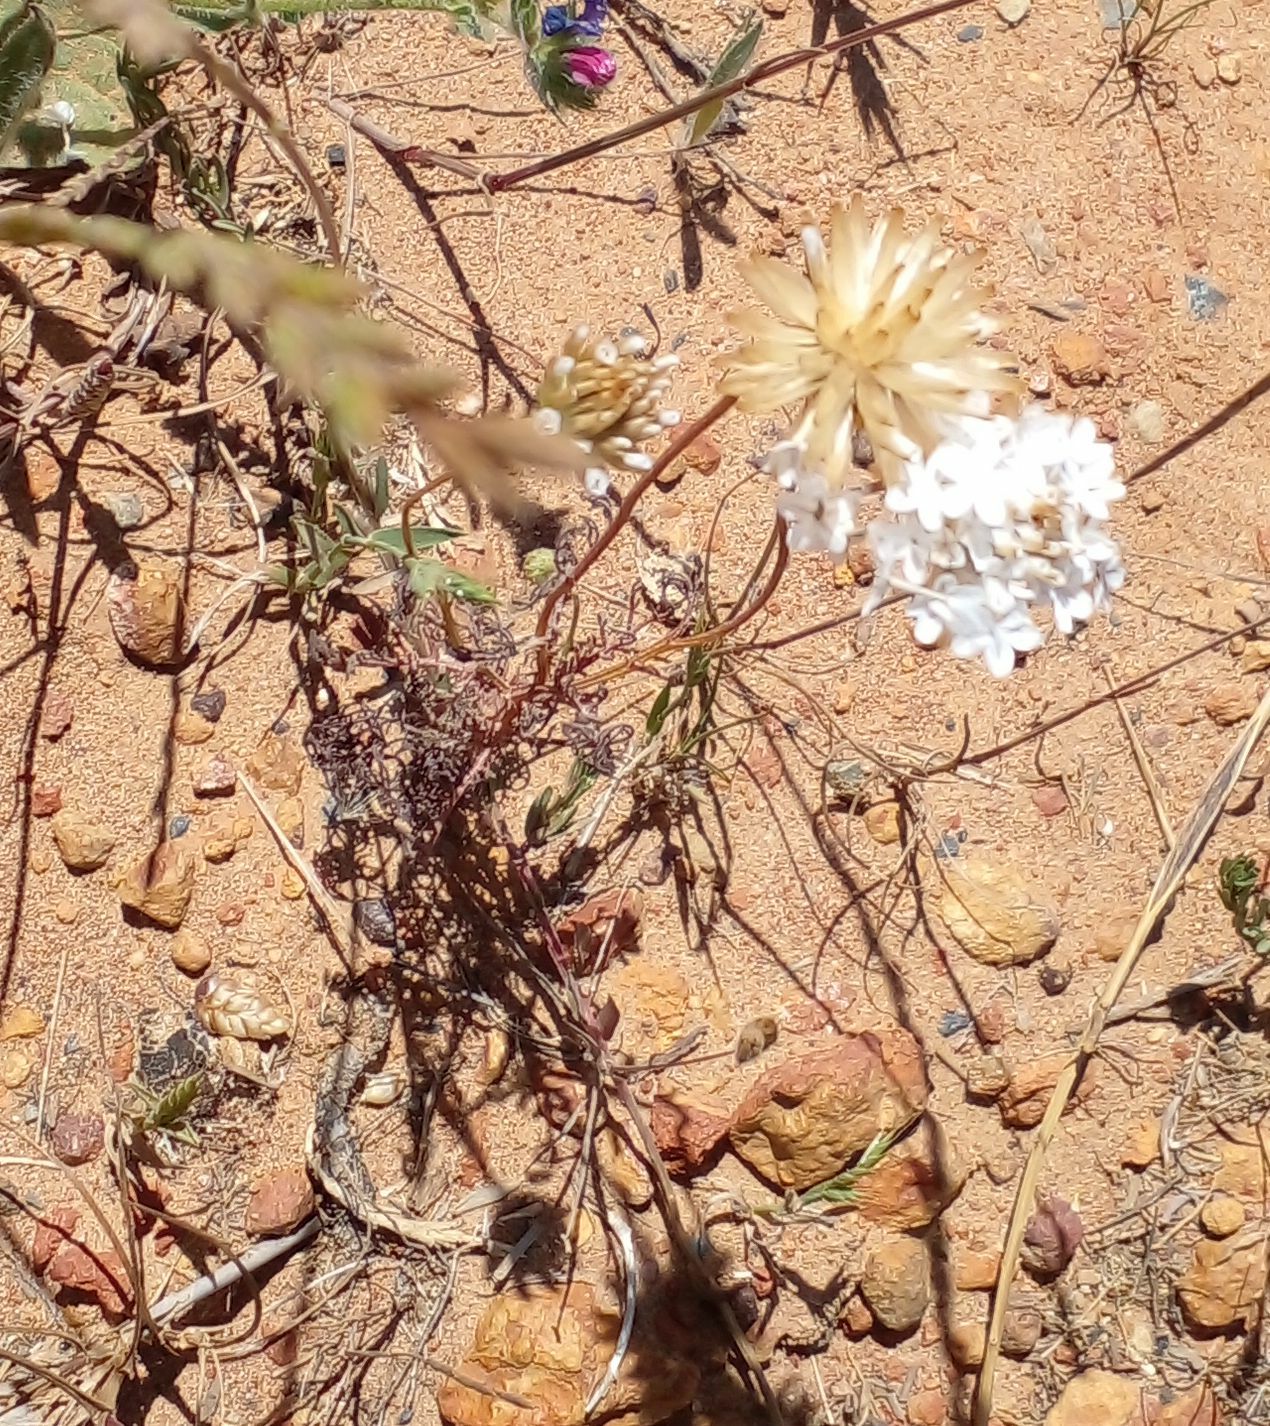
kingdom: Plantae
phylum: Tracheophyta
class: Magnoliopsida
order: Asterales
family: Asteraceae
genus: Ursinia
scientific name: Ursinia anthemoides
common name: Ursinia
